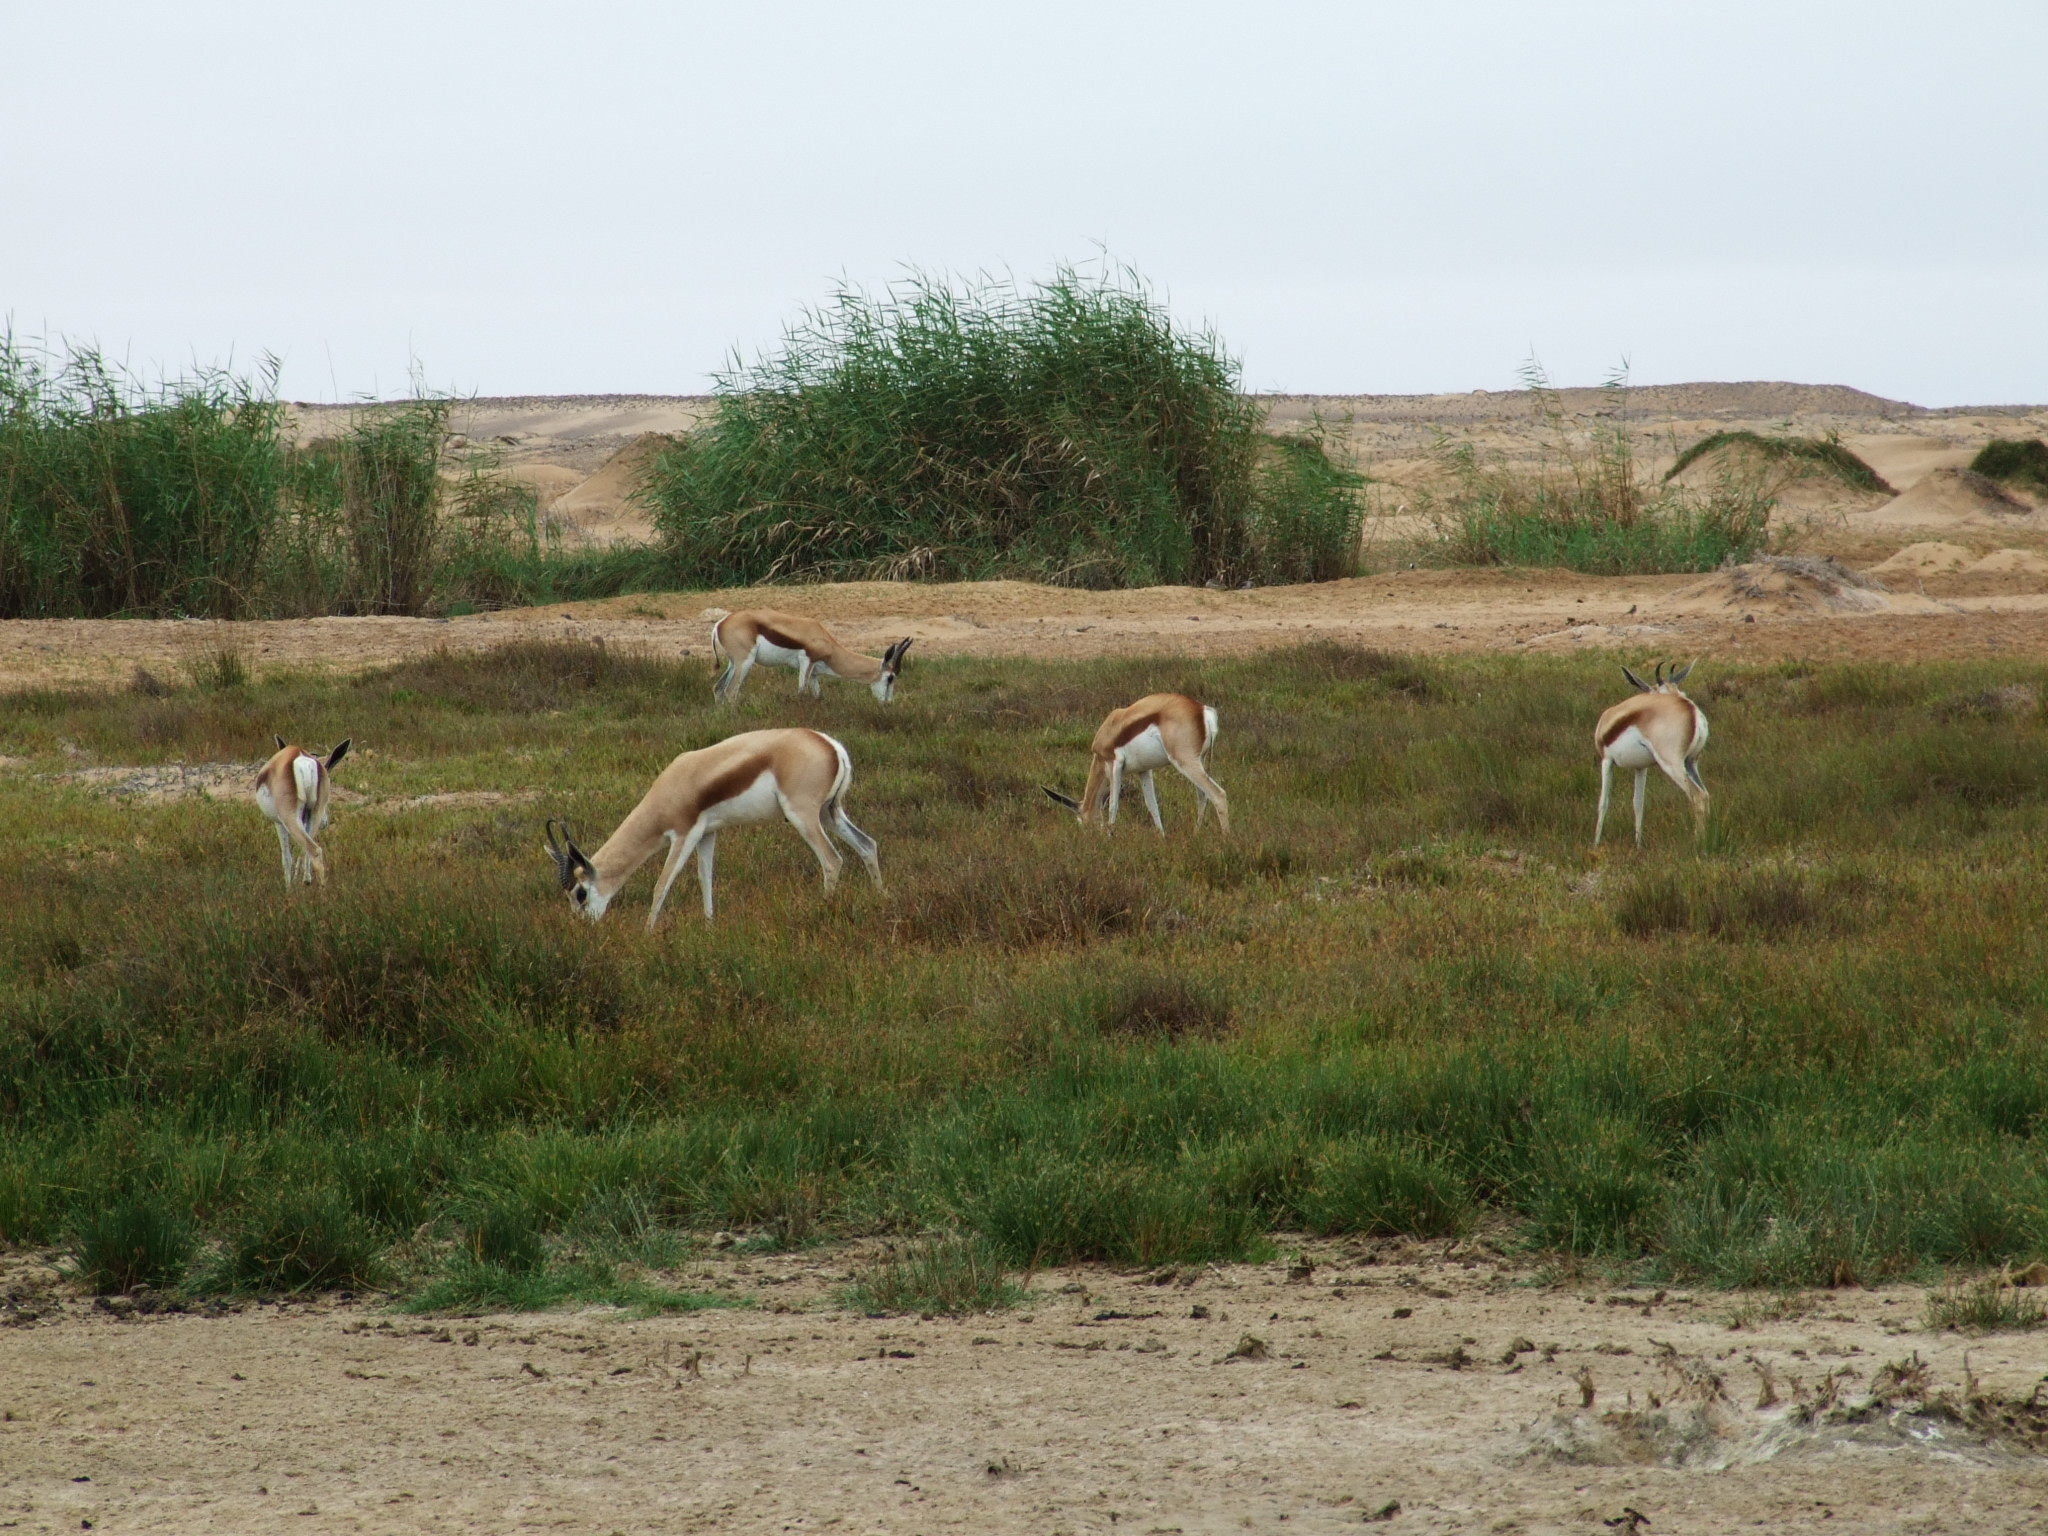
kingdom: Animalia
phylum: Chordata
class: Mammalia
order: Artiodactyla
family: Bovidae
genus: Antidorcas
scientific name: Antidorcas marsupialis
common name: Springbok
